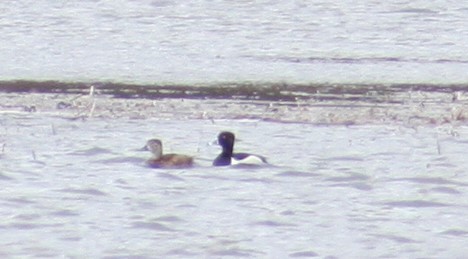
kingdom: Animalia
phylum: Chordata
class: Aves
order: Anseriformes
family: Anatidae
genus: Aythya
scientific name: Aythya collaris
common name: Ring-necked duck
